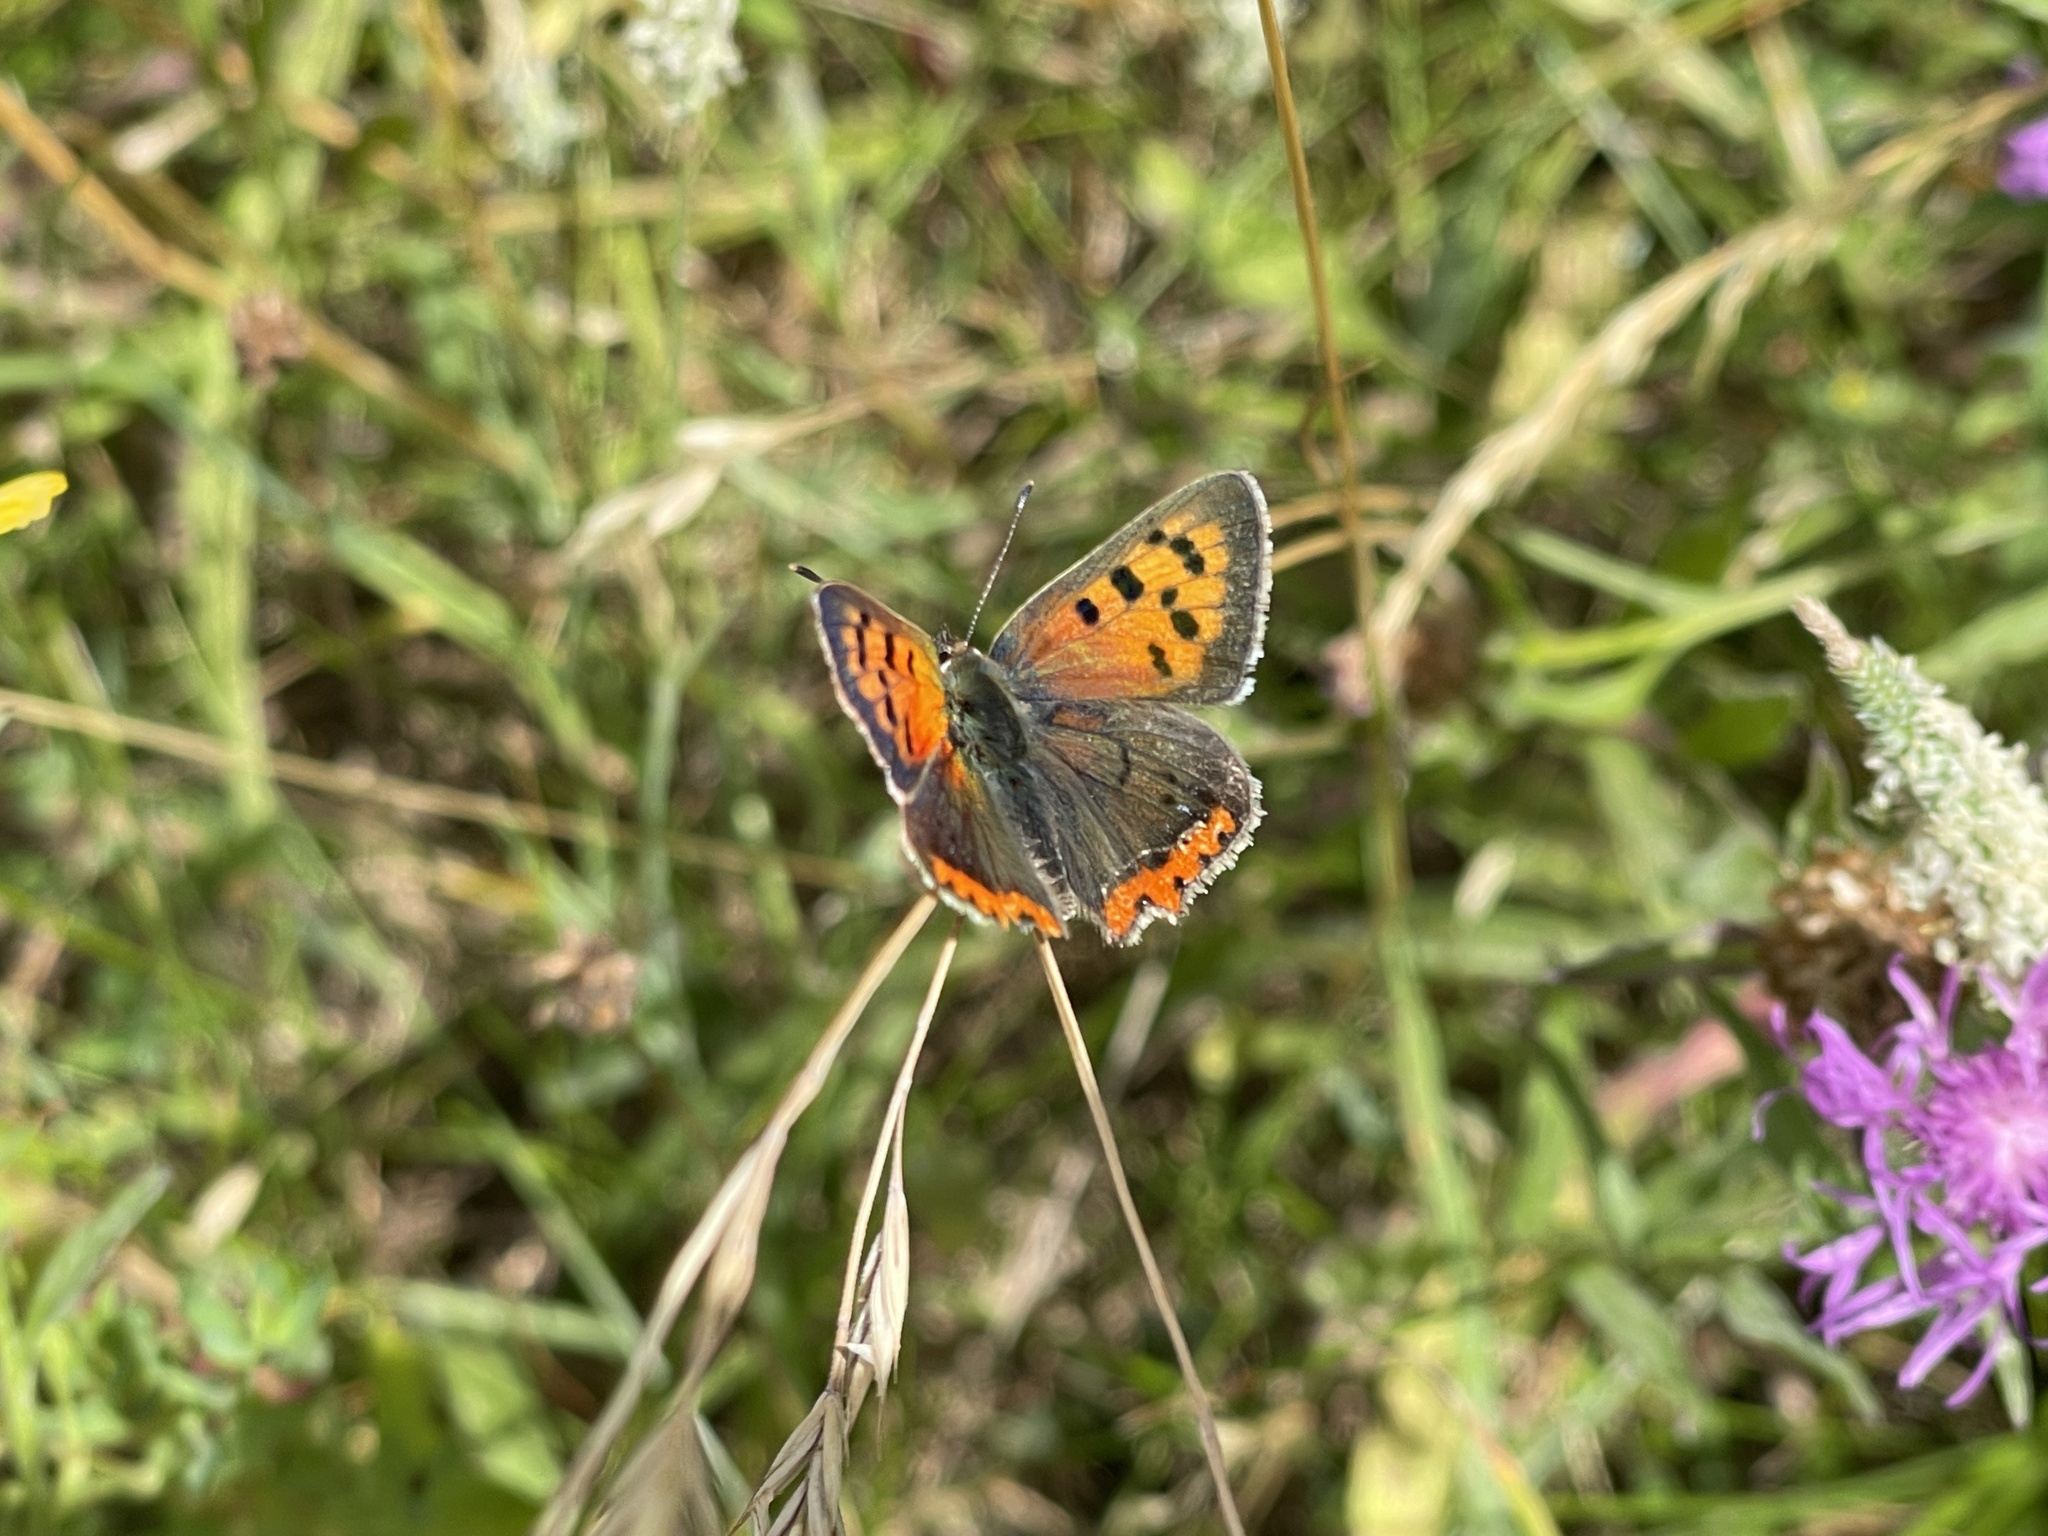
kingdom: Animalia
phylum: Arthropoda
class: Insecta
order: Lepidoptera
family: Lycaenidae
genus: Lycaena
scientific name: Lycaena phlaeas
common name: Small copper
